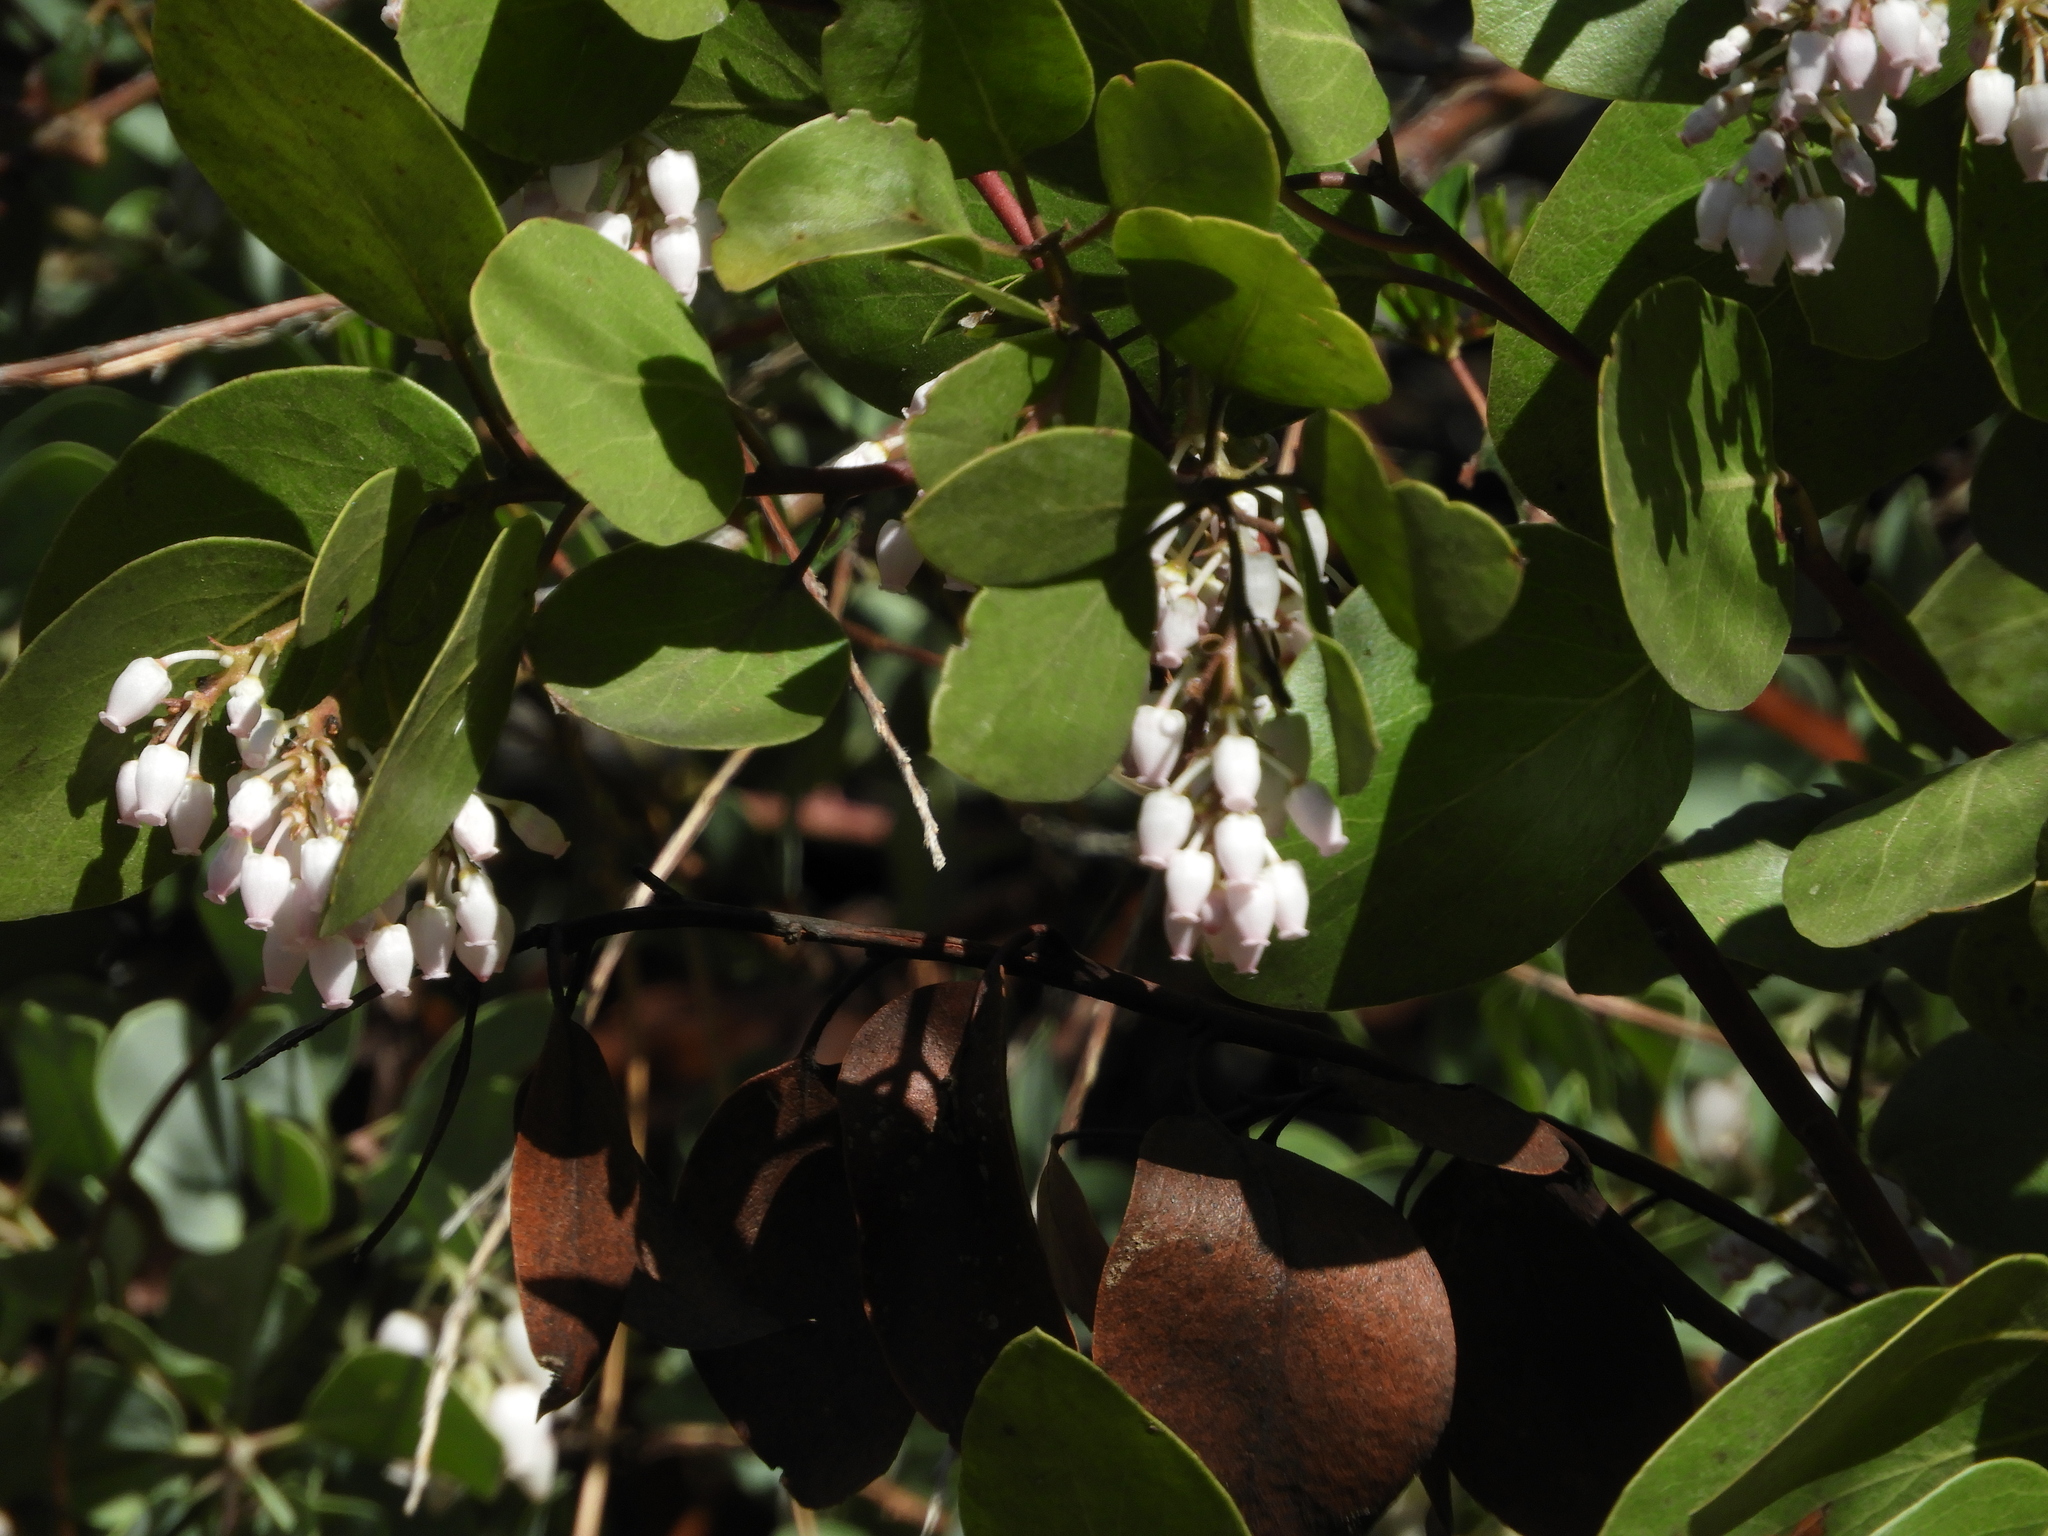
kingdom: Plantae
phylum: Tracheophyta
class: Magnoliopsida
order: Ericales
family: Ericaceae
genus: Arctostaphylos
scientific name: Arctostaphylos patula
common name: Green-leaf manzanita
